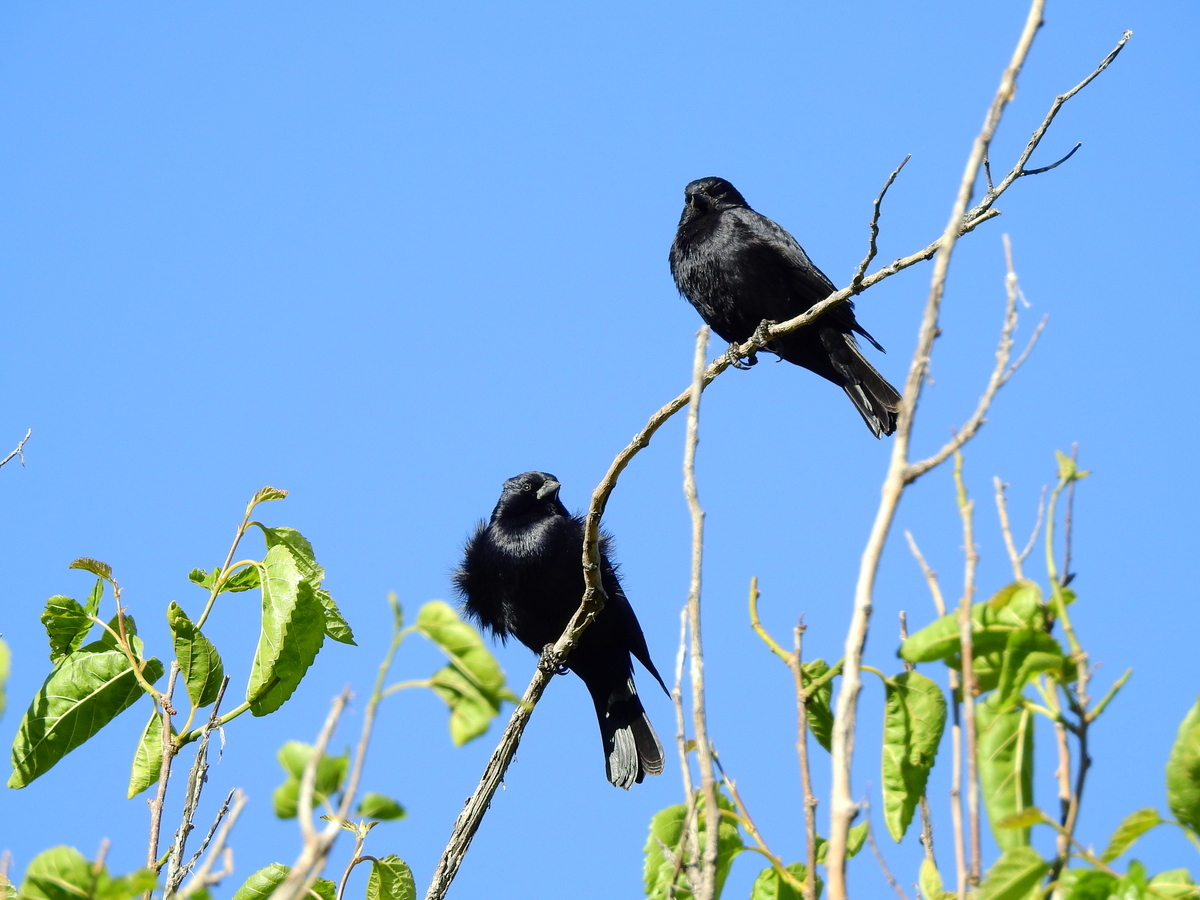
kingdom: Animalia
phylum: Chordata
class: Aves
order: Passeriformes
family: Icteridae
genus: Molothrus
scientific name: Molothrus rufoaxillaris
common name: Screaming cowbird
